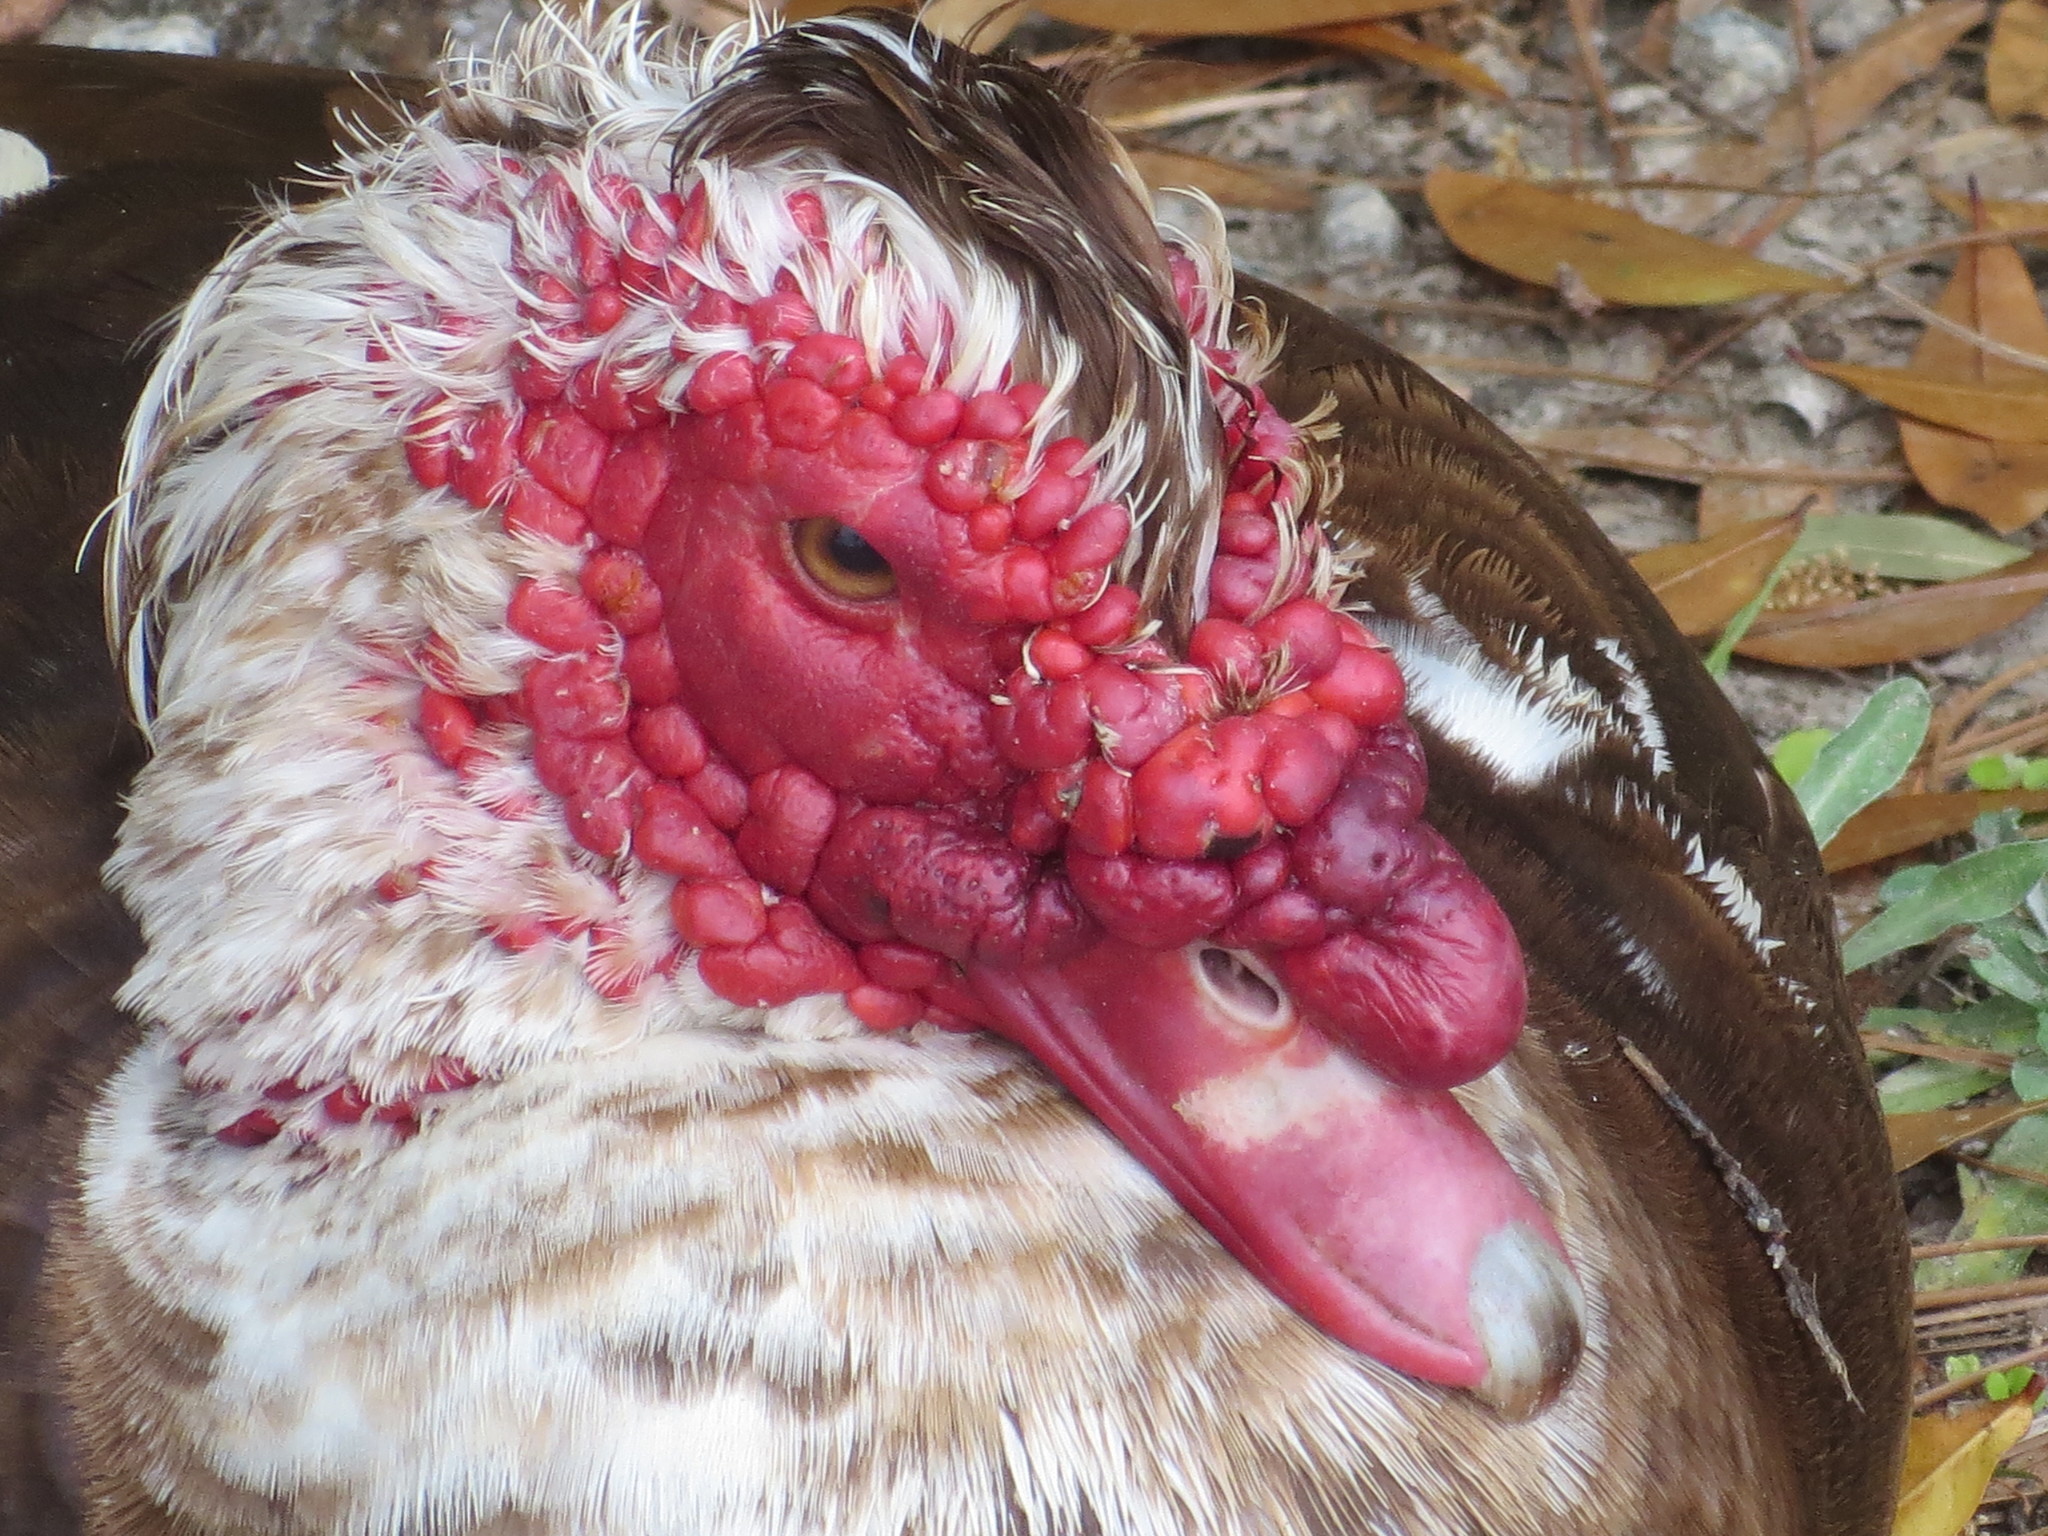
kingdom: Animalia
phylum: Chordata
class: Aves
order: Anseriformes
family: Anatidae
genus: Cairina
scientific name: Cairina moschata
